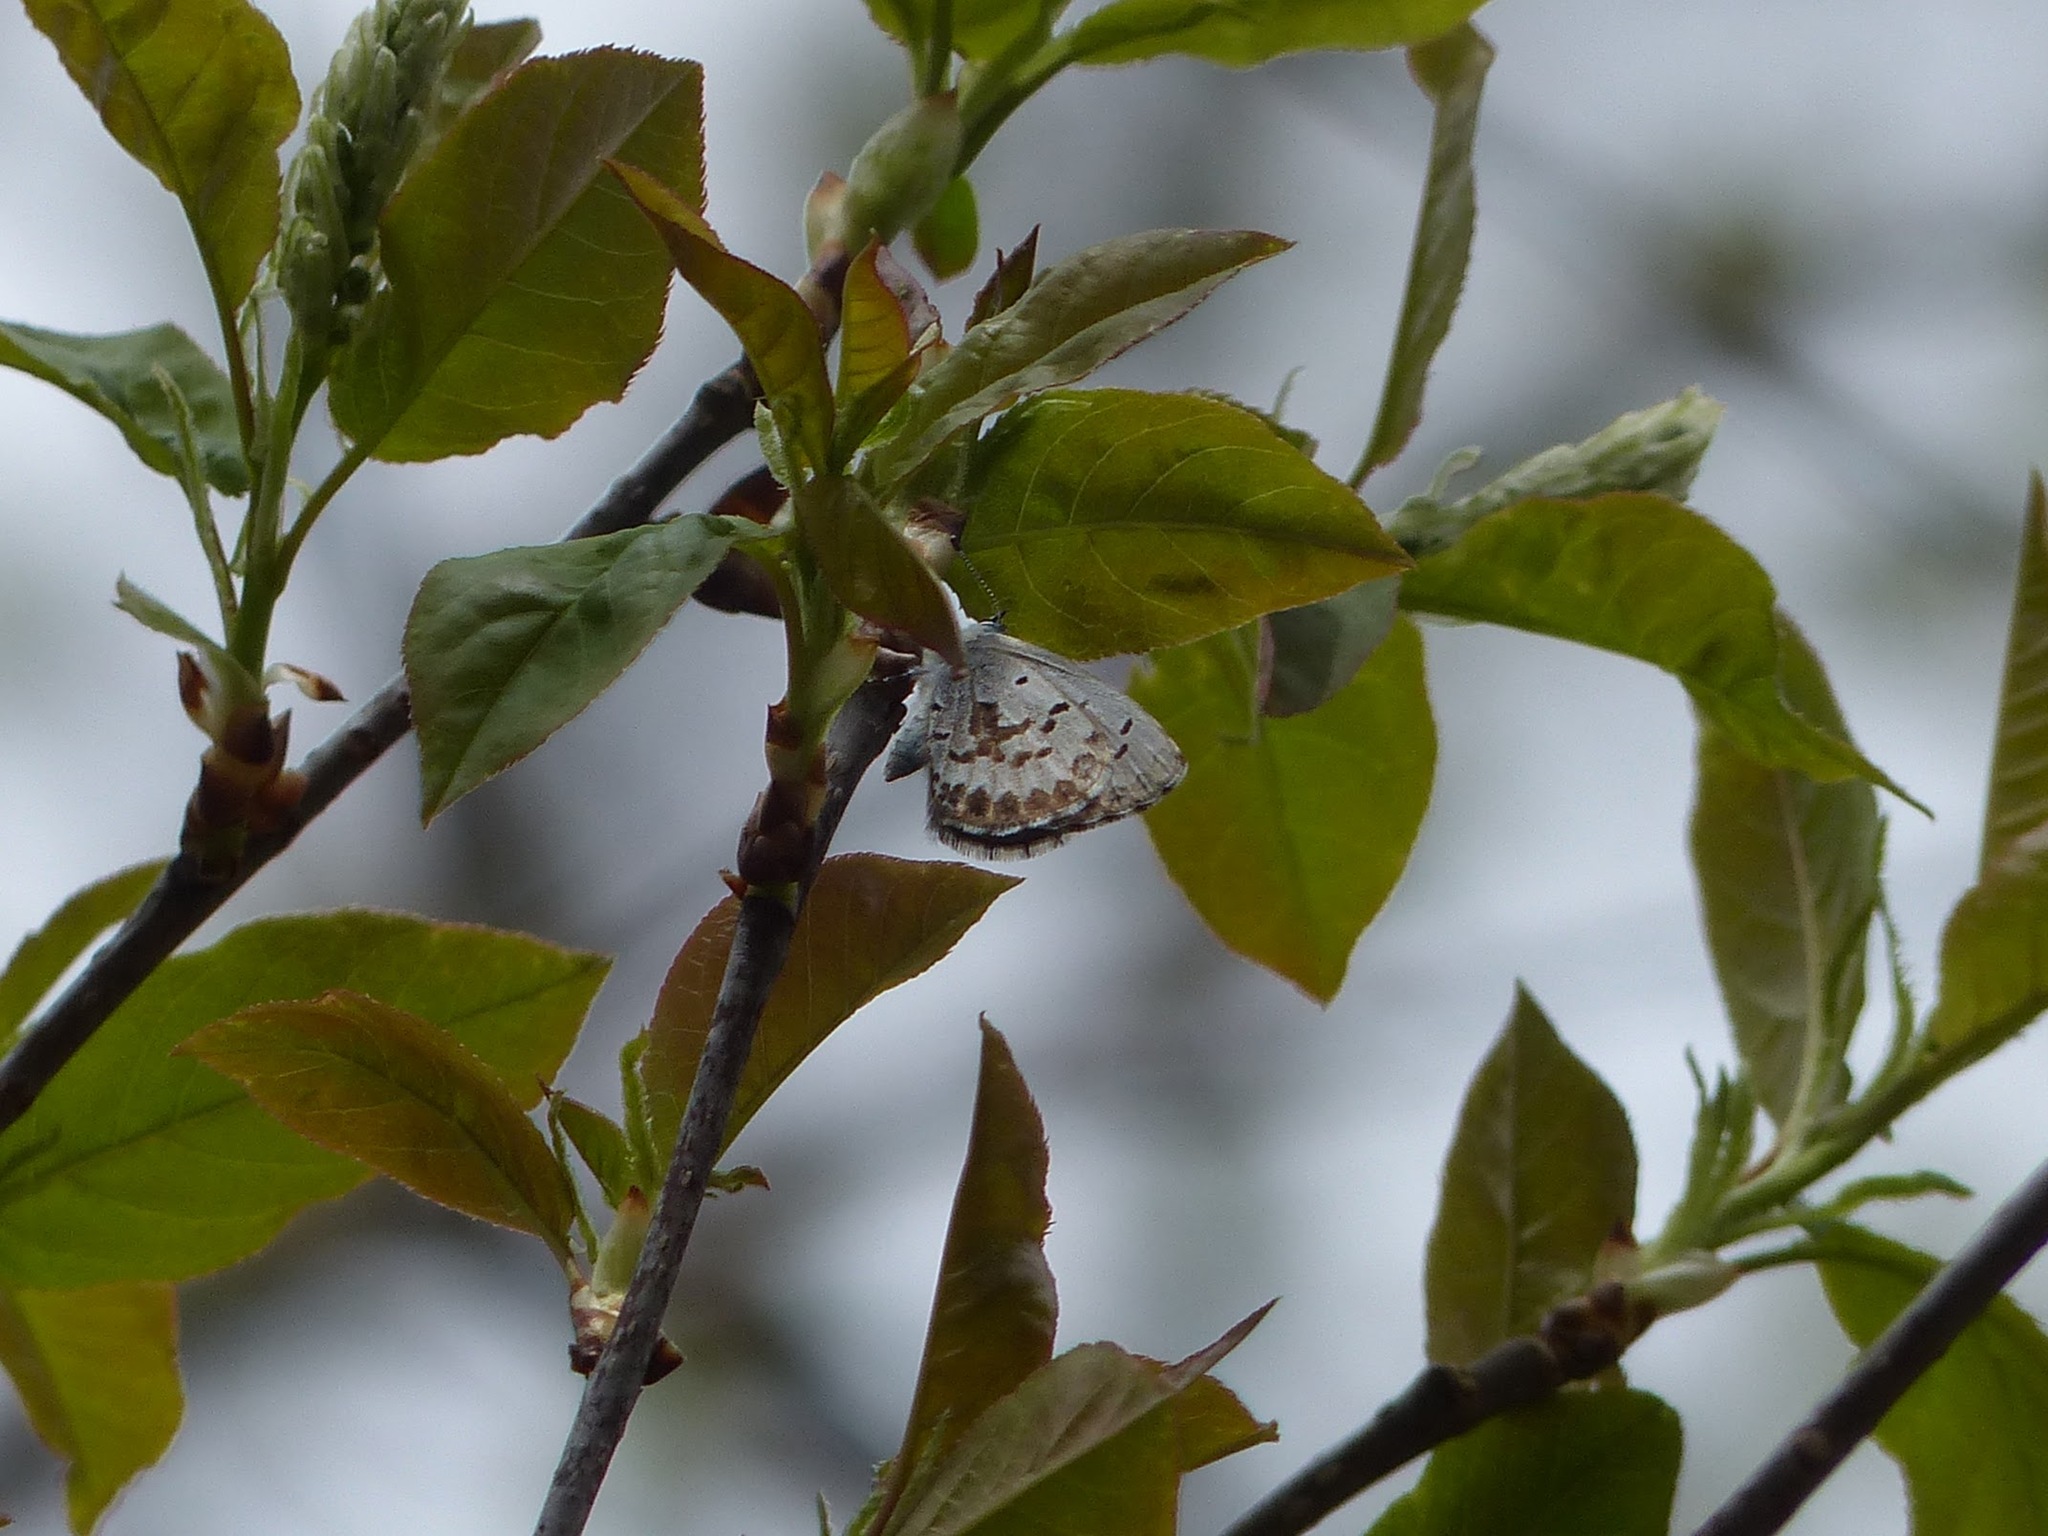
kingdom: Animalia
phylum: Arthropoda
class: Insecta
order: Lepidoptera
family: Lycaenidae
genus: Celastrina
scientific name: Celastrina ladon
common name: Spring azure
